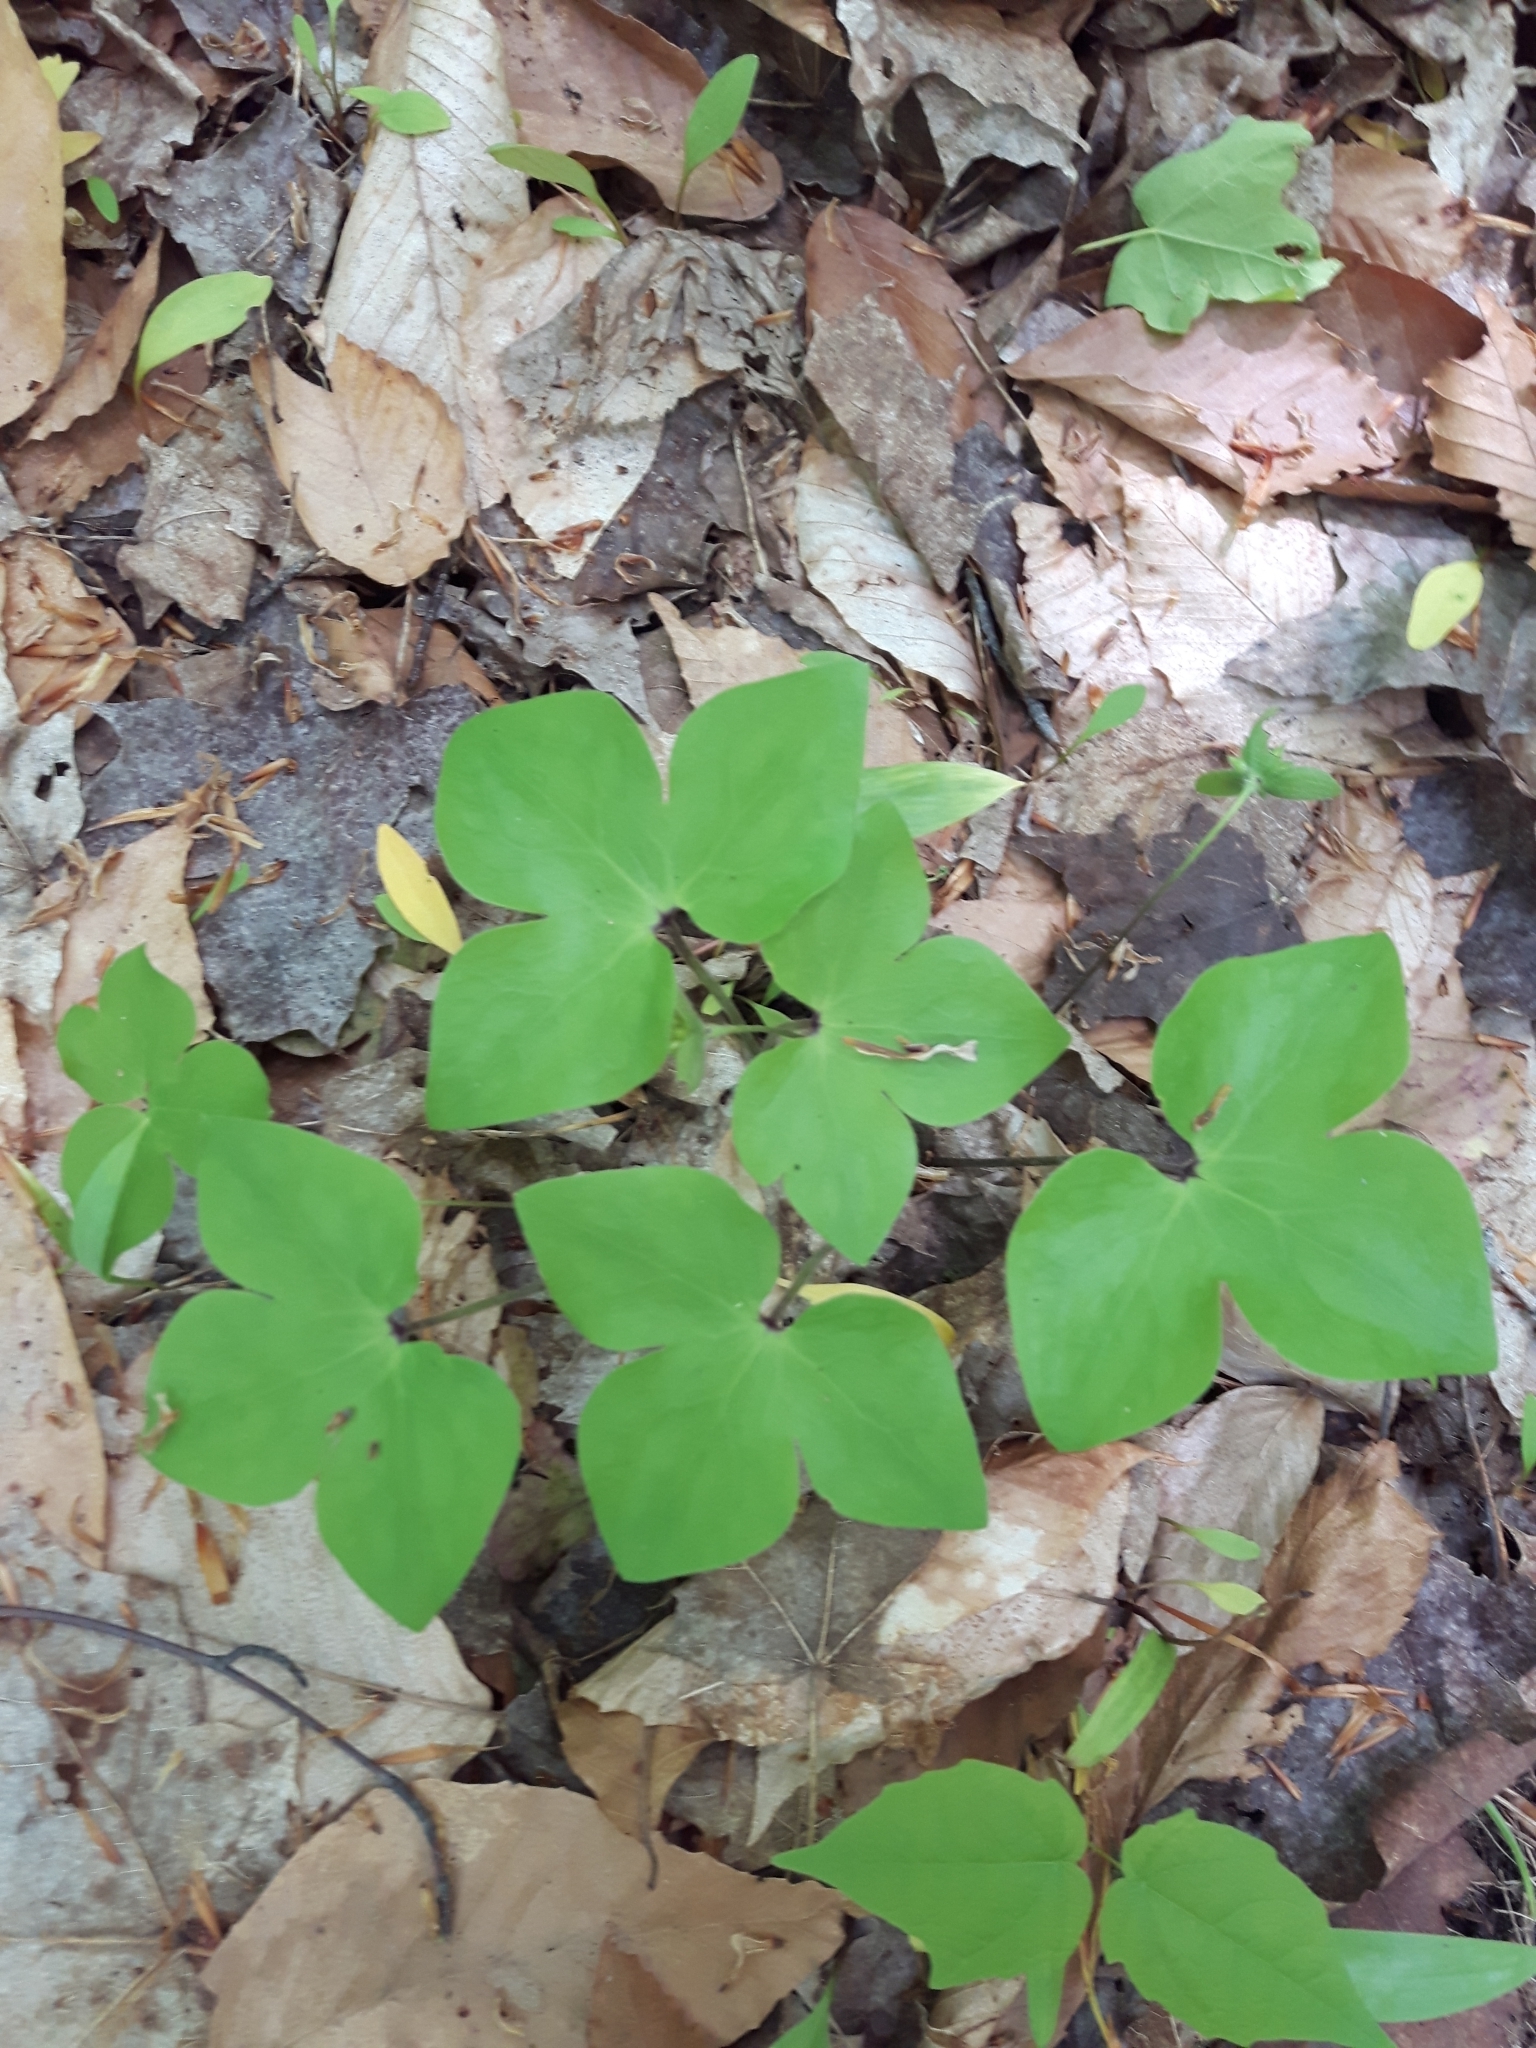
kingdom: Plantae
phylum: Tracheophyta
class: Magnoliopsida
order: Ranunculales
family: Ranunculaceae
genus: Hepatica
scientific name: Hepatica acutiloba
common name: Sharp-lobed hepatica
